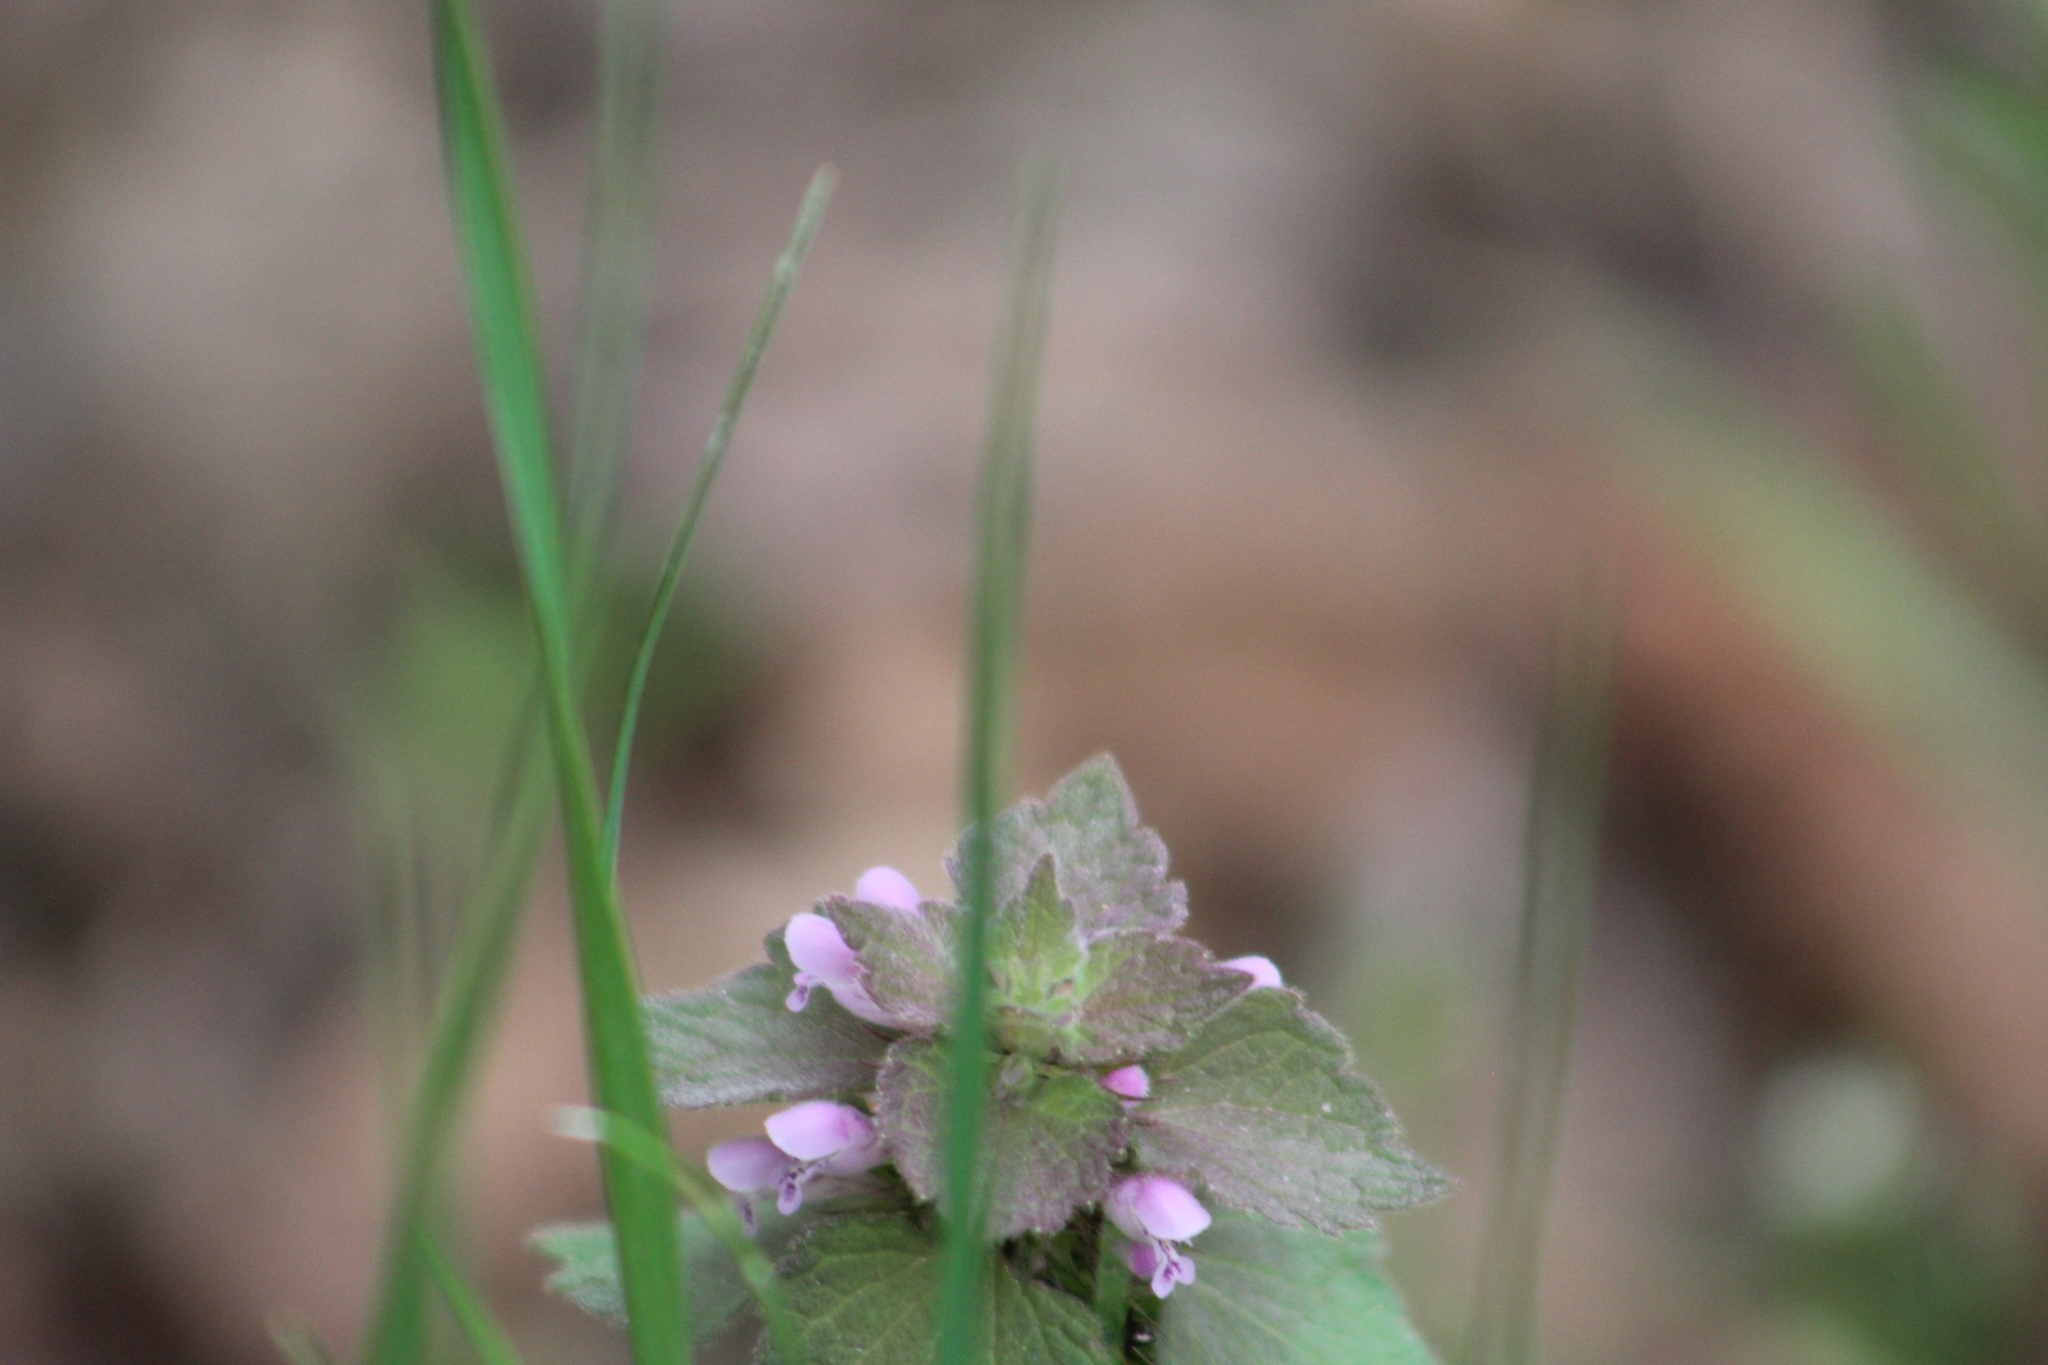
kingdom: Plantae
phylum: Tracheophyta
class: Magnoliopsida
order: Lamiales
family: Lamiaceae
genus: Lamium
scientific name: Lamium purpureum
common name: Red dead-nettle
